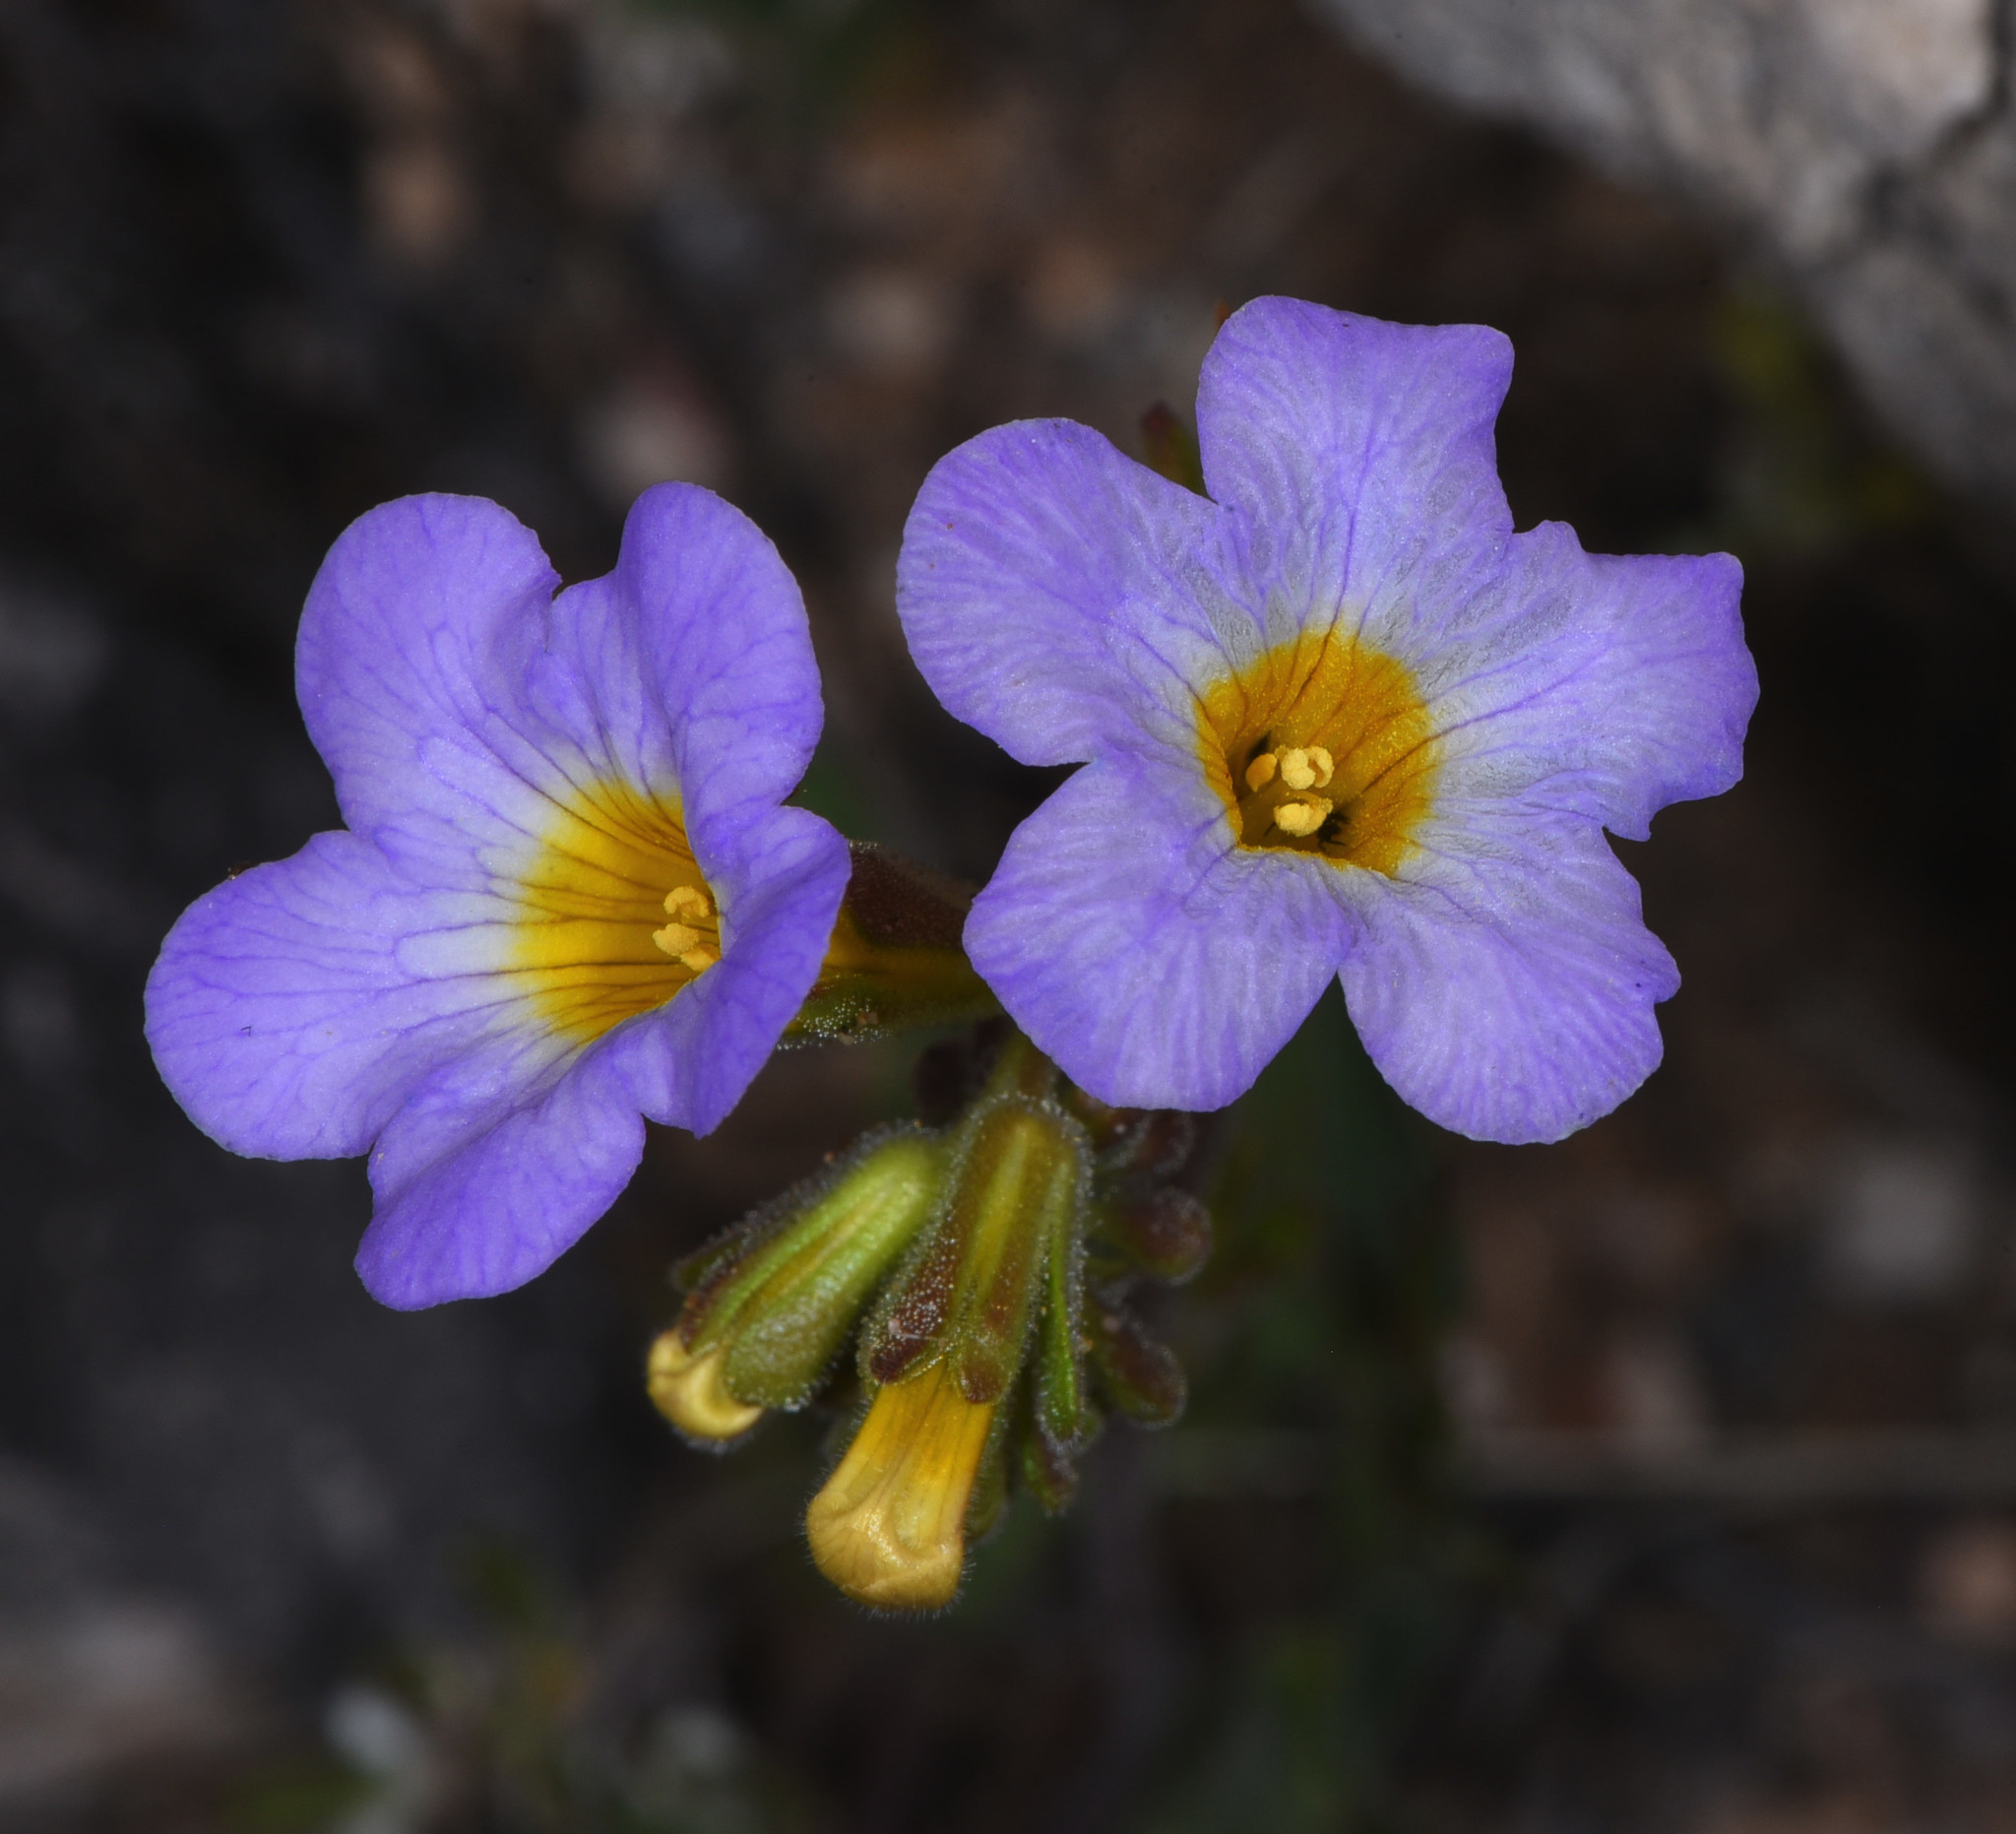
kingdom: Plantae
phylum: Tracheophyta
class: Magnoliopsida
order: Boraginales
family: Hydrophyllaceae
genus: Phacelia
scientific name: Phacelia fremontii
